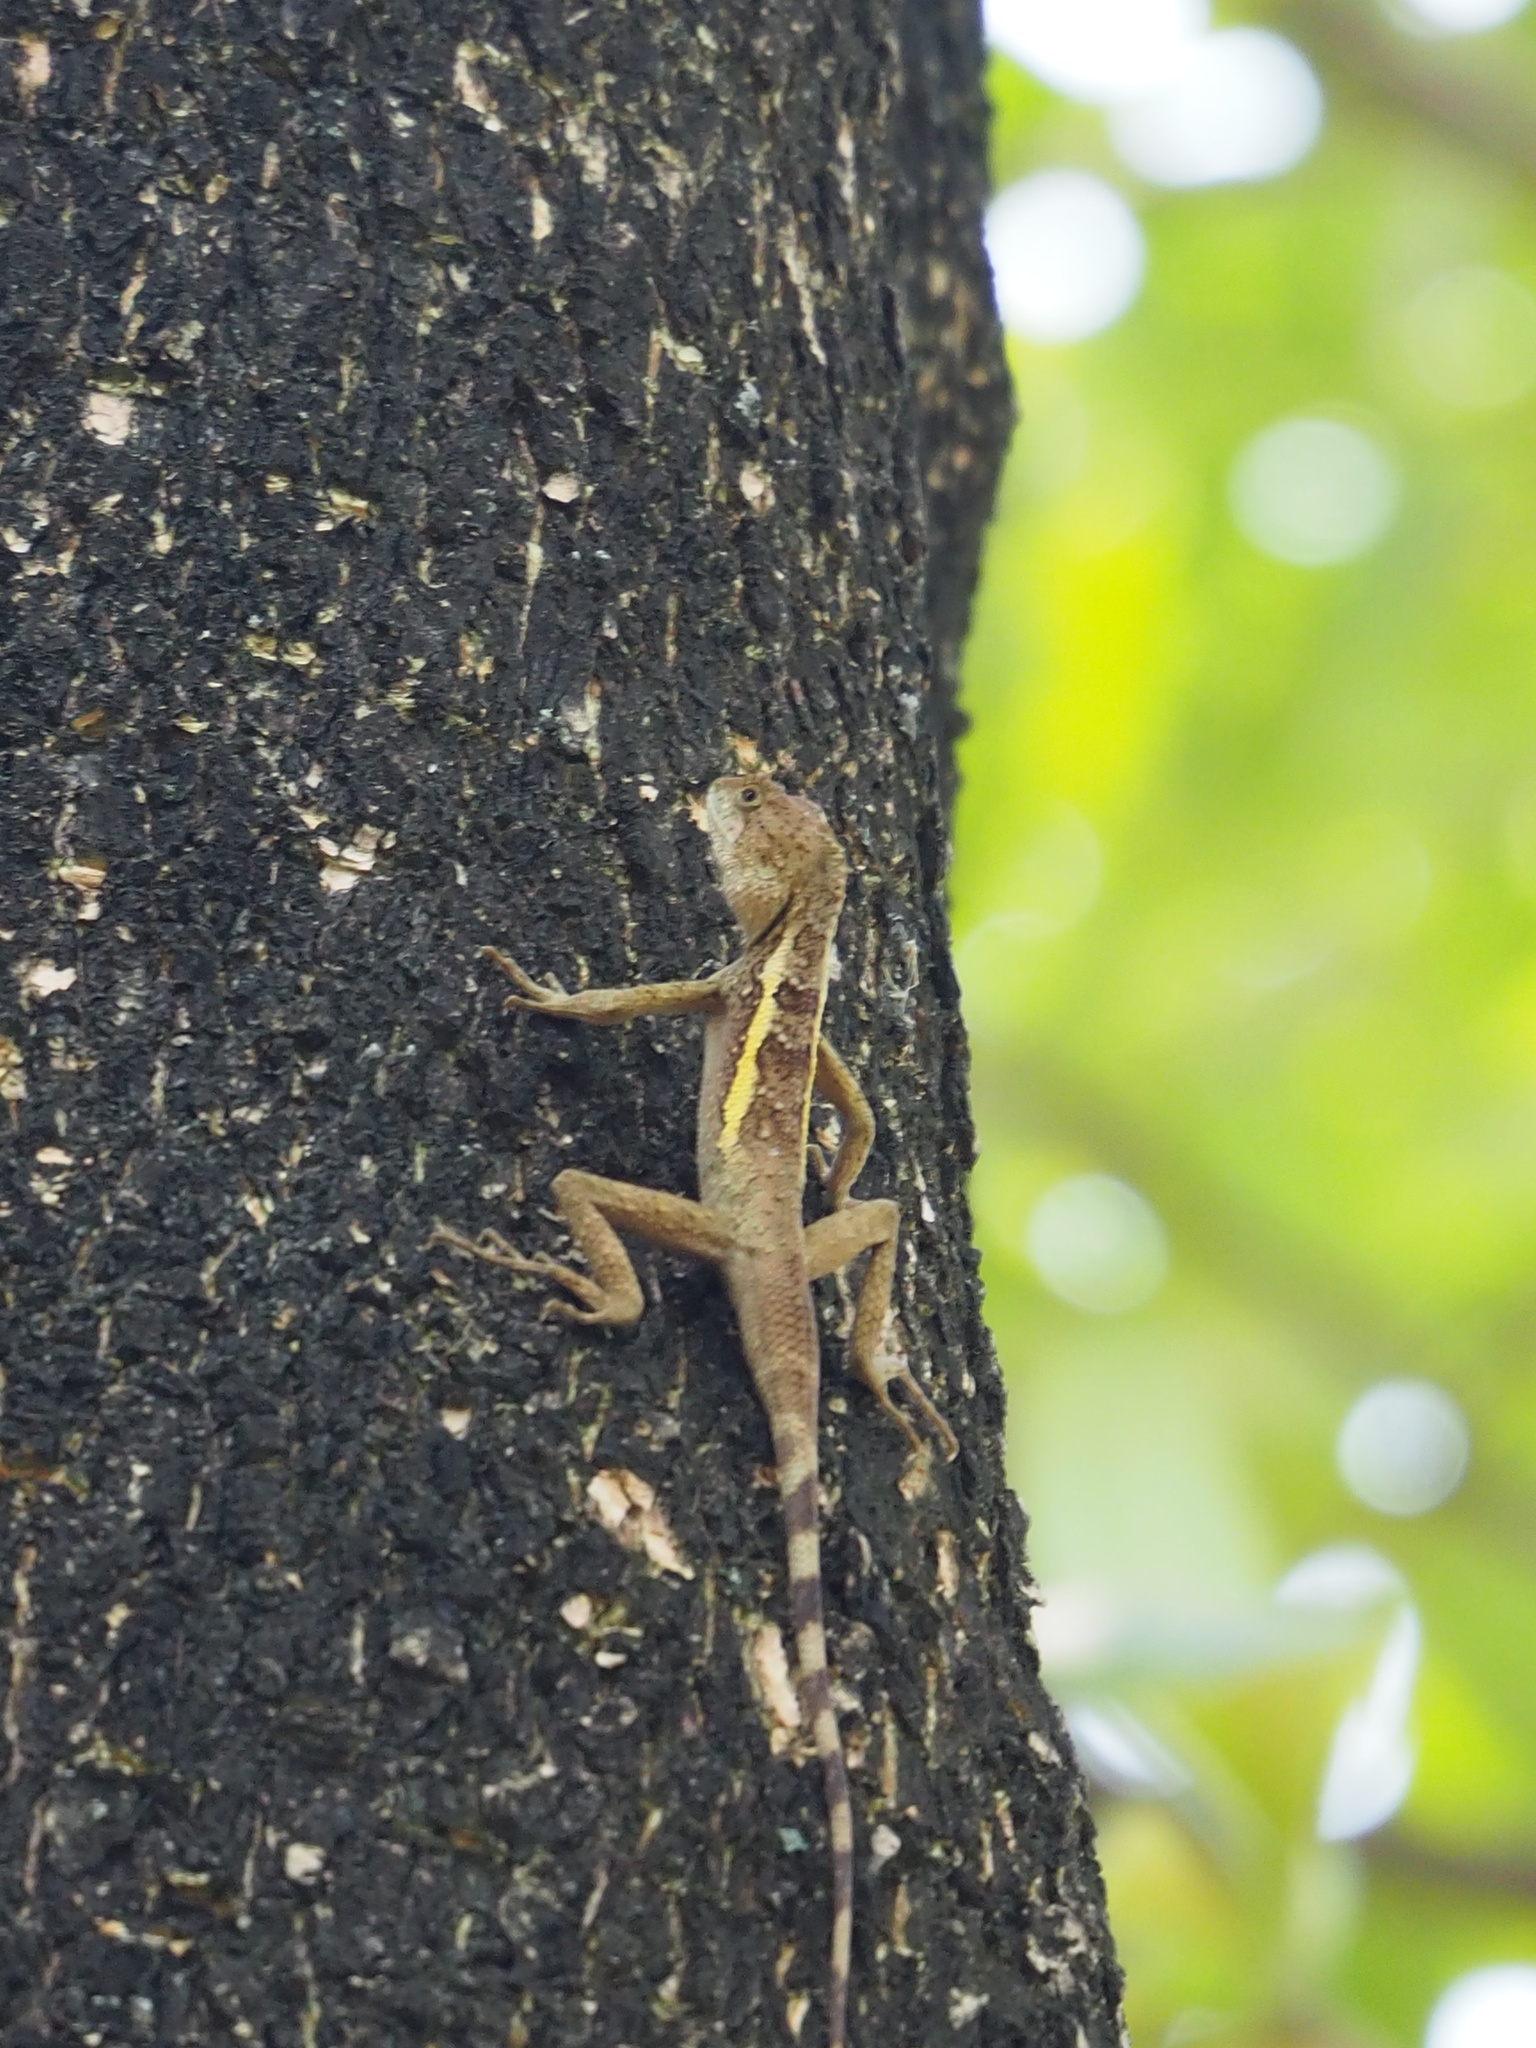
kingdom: Animalia
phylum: Chordata
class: Squamata
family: Agamidae
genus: Diploderma
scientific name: Diploderma swinhonis
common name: Taiwan japalure
